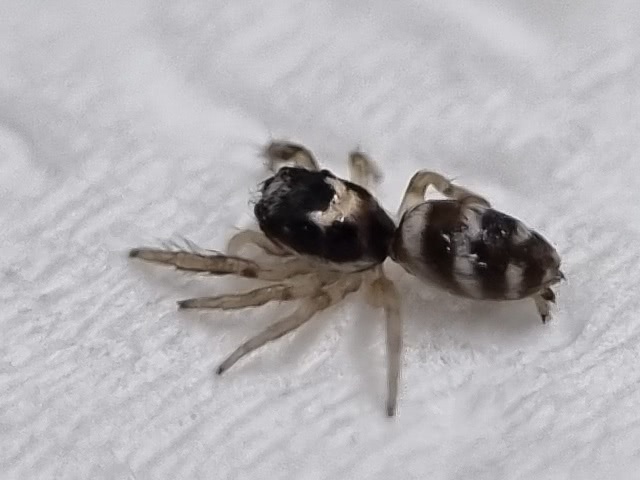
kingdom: Animalia
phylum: Arthropoda
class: Arachnida
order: Araneae
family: Salticidae
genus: Salticus
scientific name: Salticus scenicus
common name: Zebra jumper
